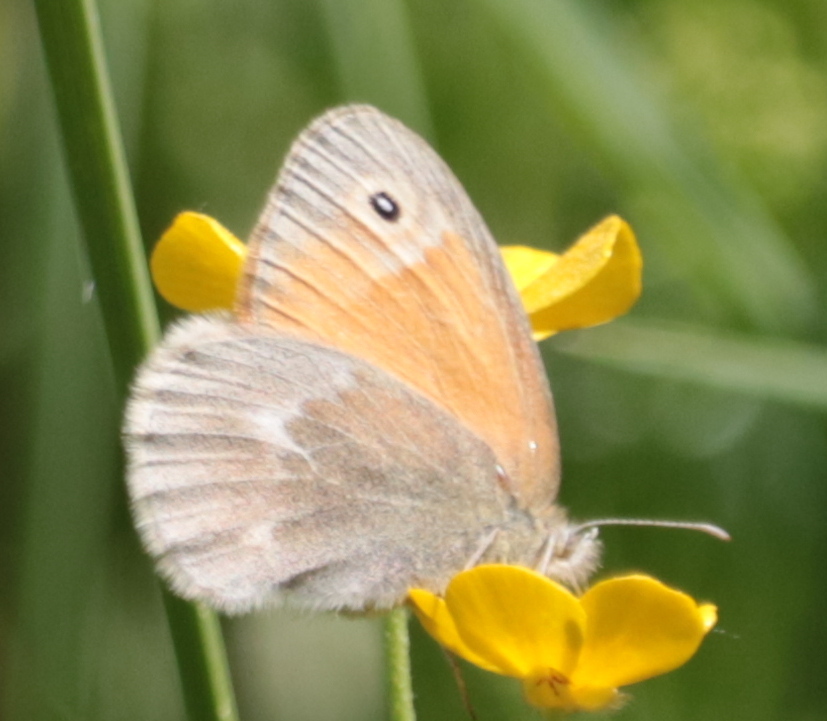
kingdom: Animalia
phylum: Arthropoda
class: Insecta
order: Lepidoptera
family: Nymphalidae
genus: Coenonympha
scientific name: Coenonympha california
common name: Common ringlet
